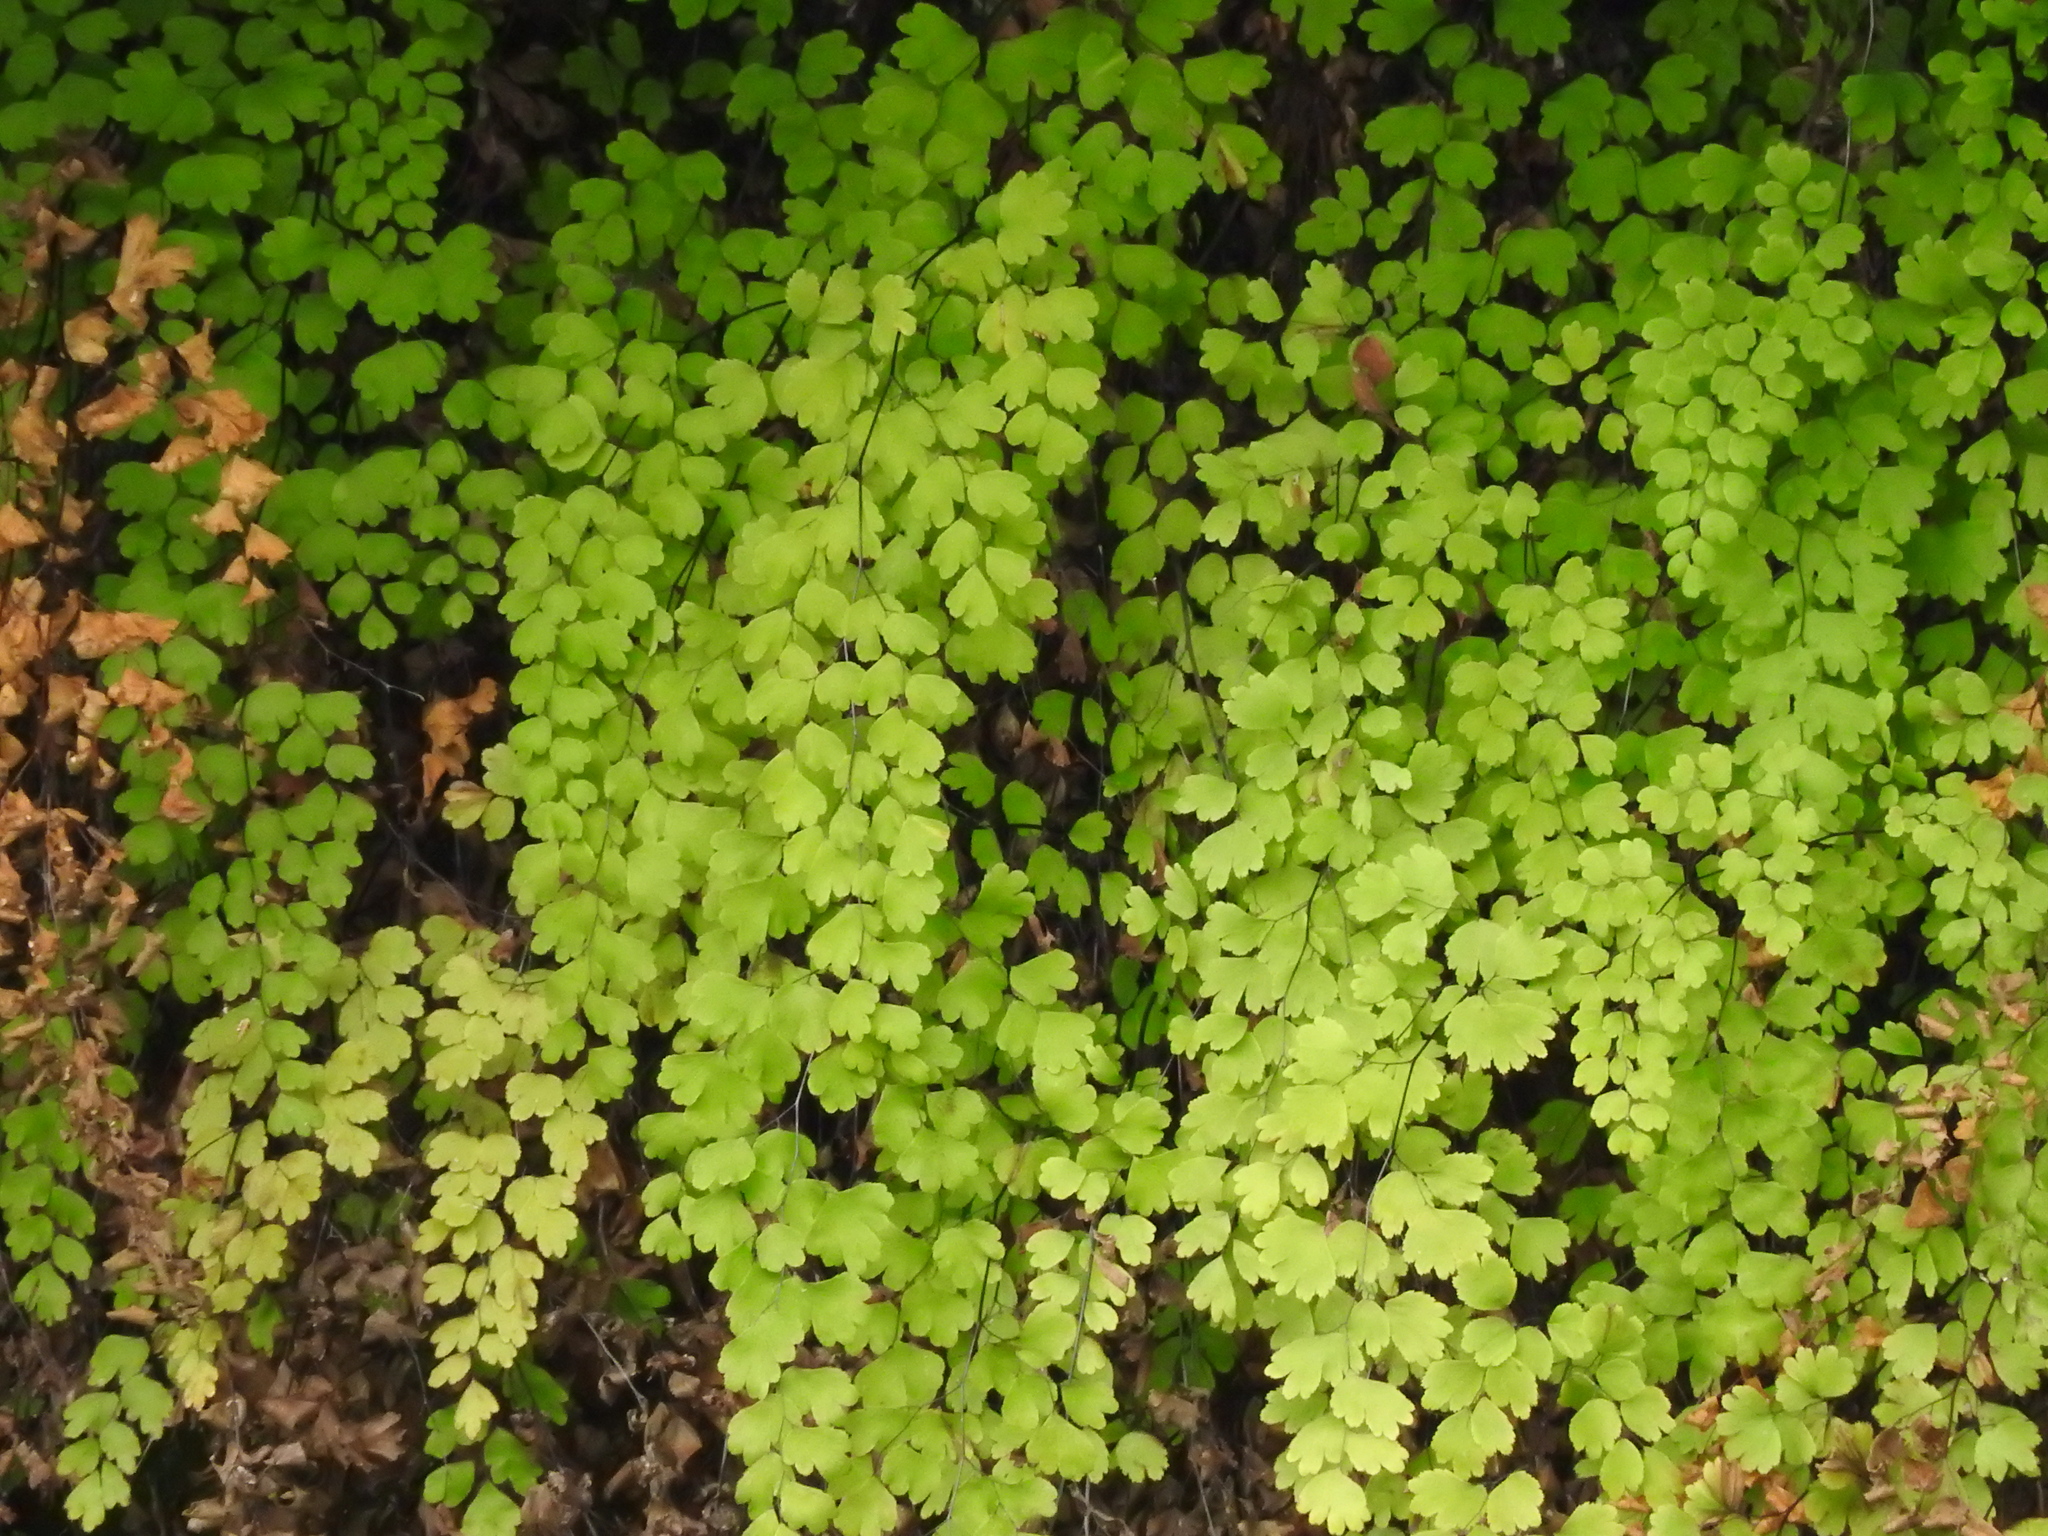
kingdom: Plantae
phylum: Tracheophyta
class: Polypodiopsida
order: Polypodiales
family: Pteridaceae
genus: Adiantum
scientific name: Adiantum capillus-veneris
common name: Maidenhair fern
